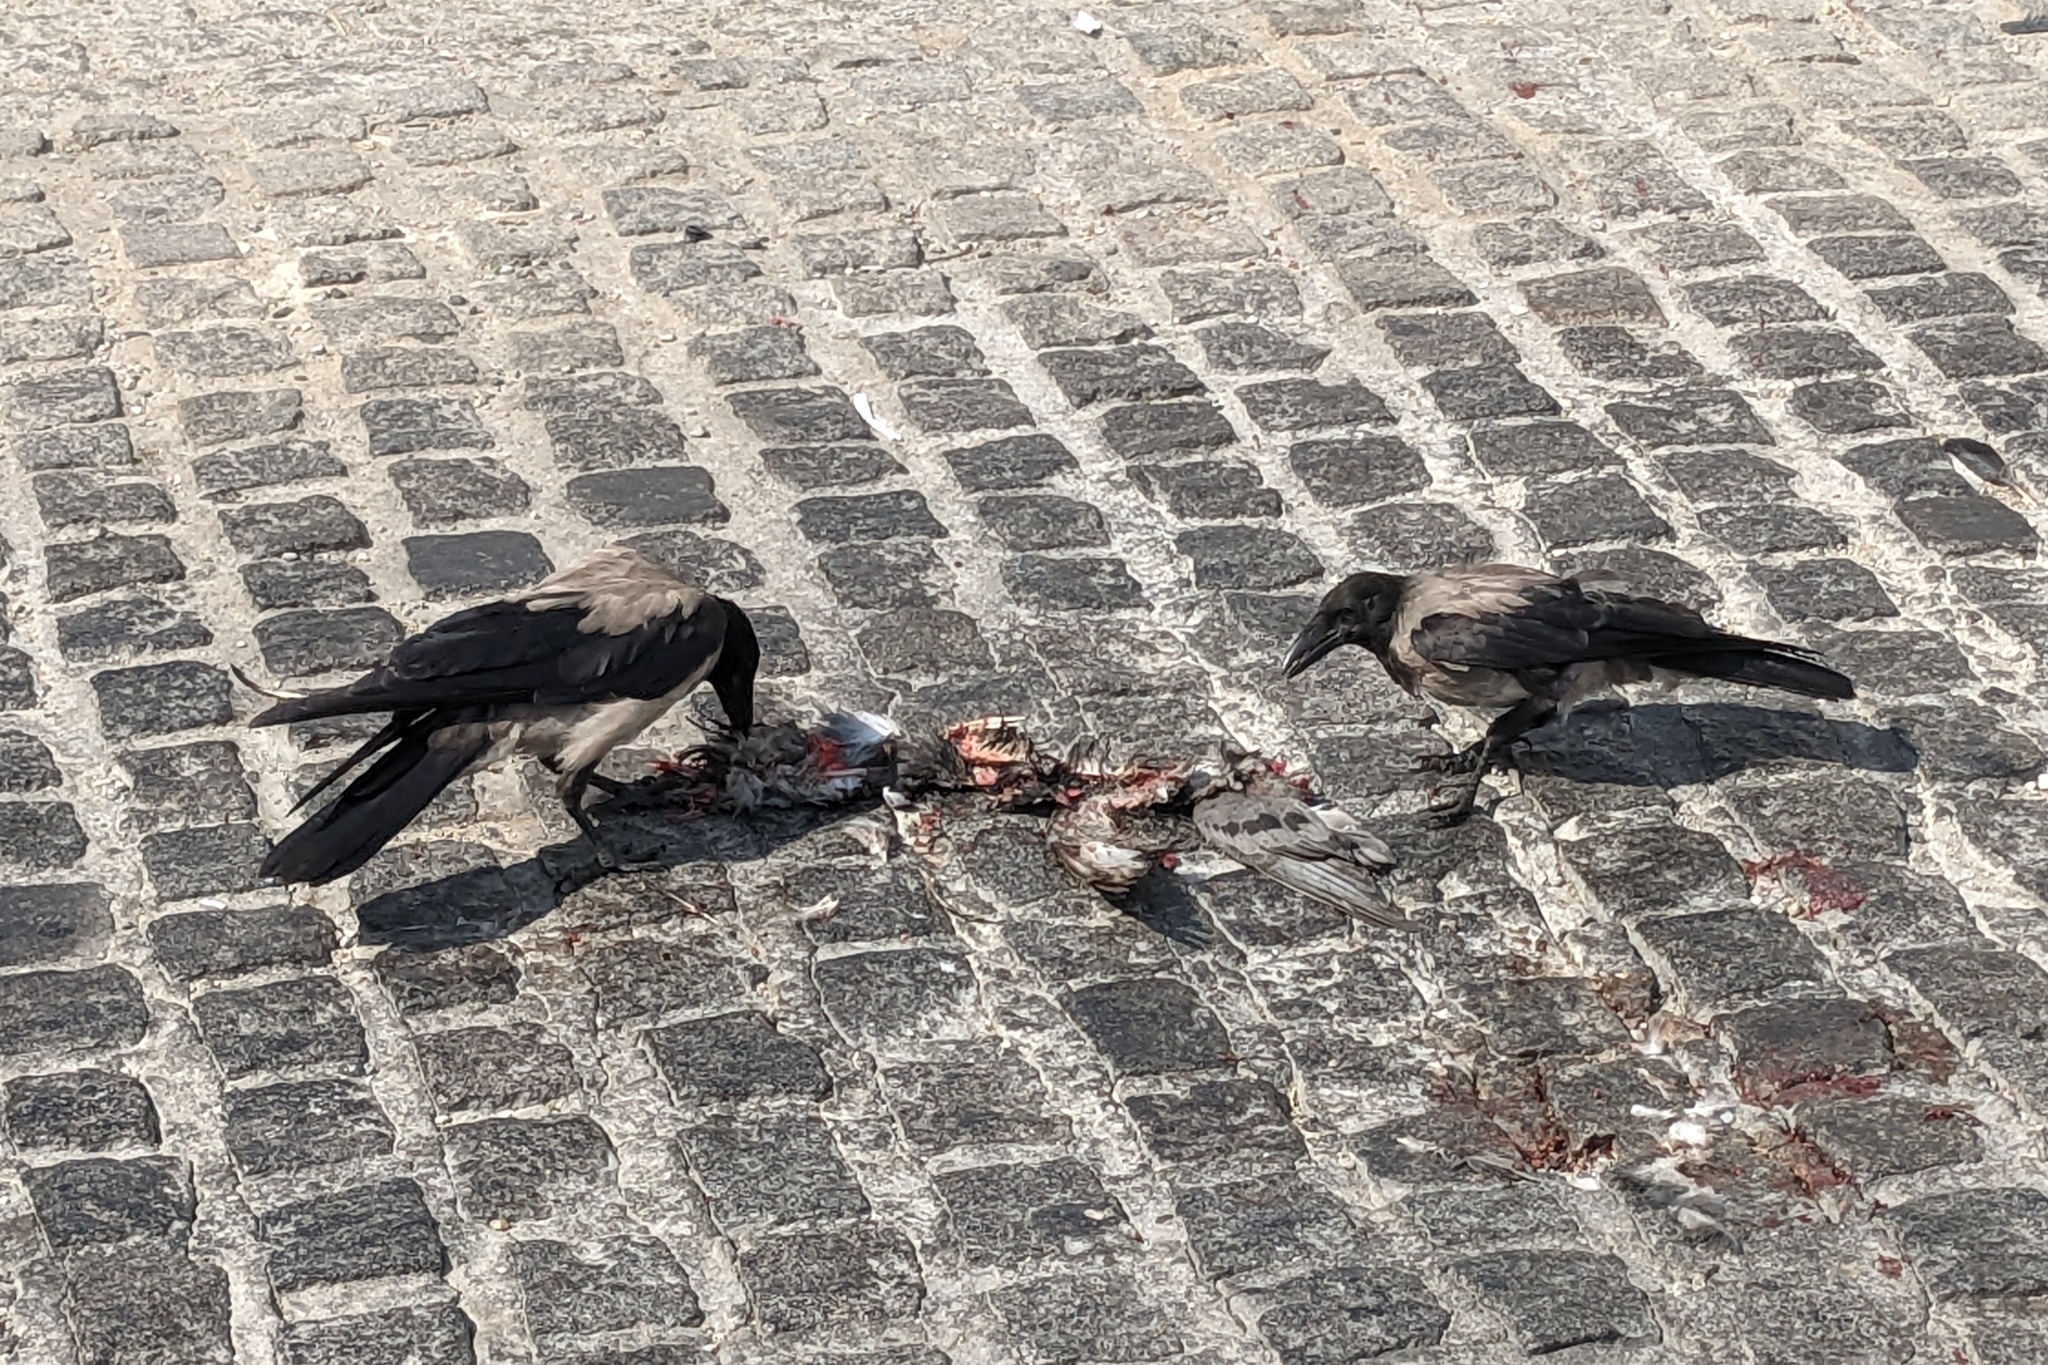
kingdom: Animalia
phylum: Chordata
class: Aves
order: Passeriformes
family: Corvidae
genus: Corvus
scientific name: Corvus cornix
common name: Hooded crow
